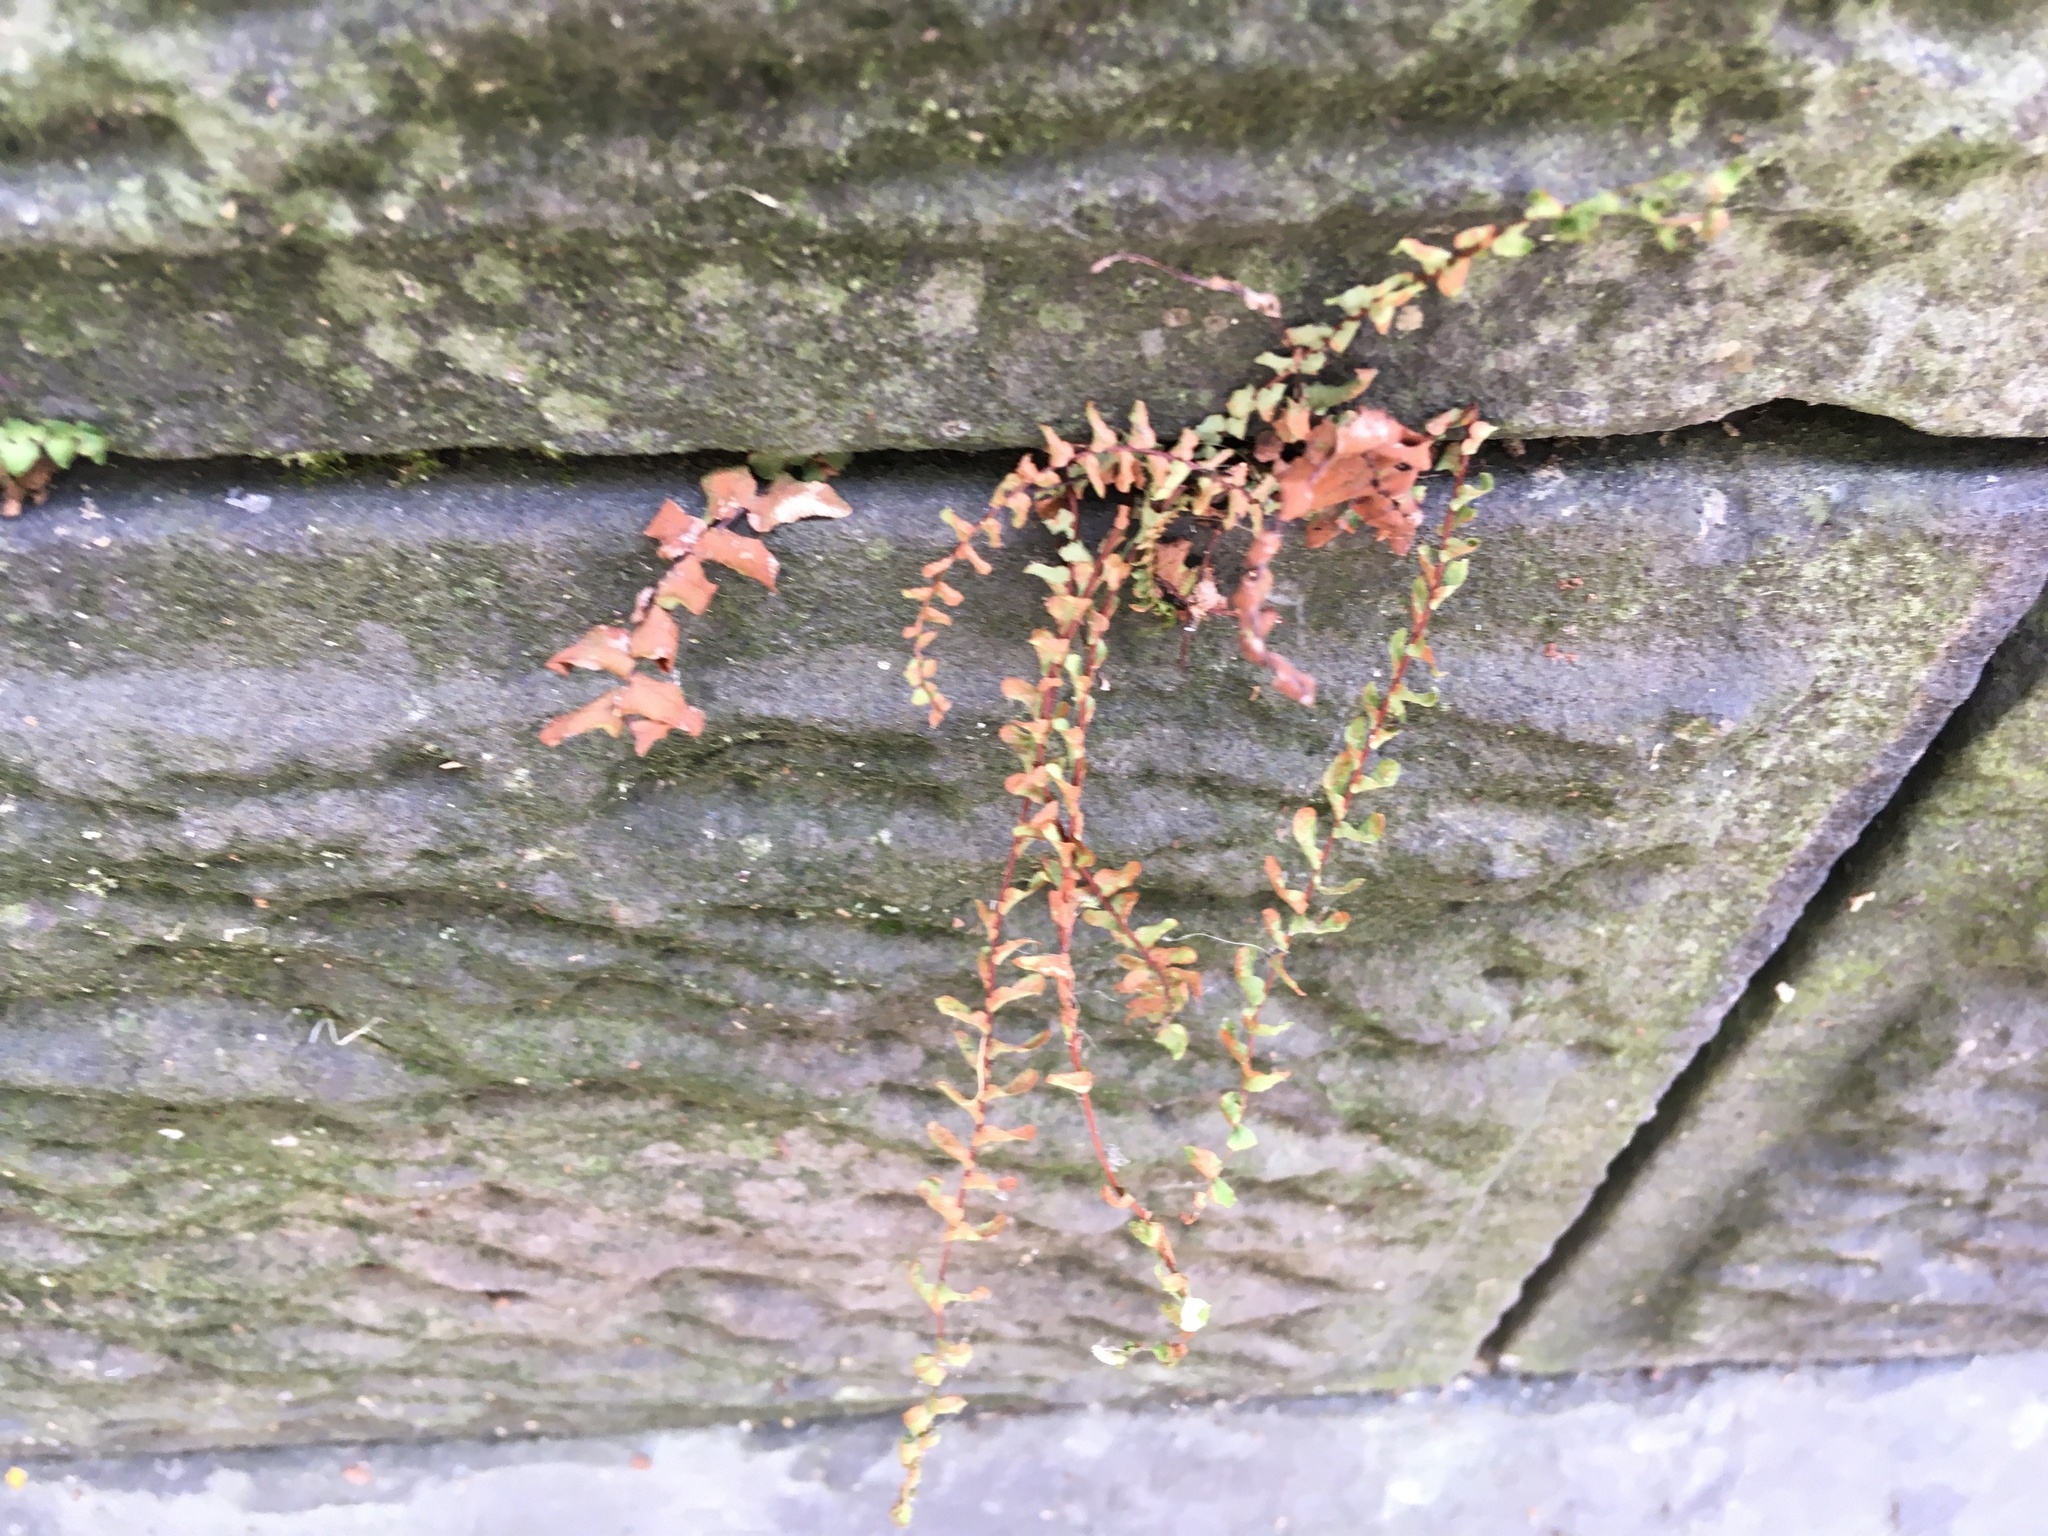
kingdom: Plantae
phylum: Tracheophyta
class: Polypodiopsida
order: Polypodiales
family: Aspleniaceae
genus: Asplenium
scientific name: Asplenium platyneuron
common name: Ebony spleenwort
